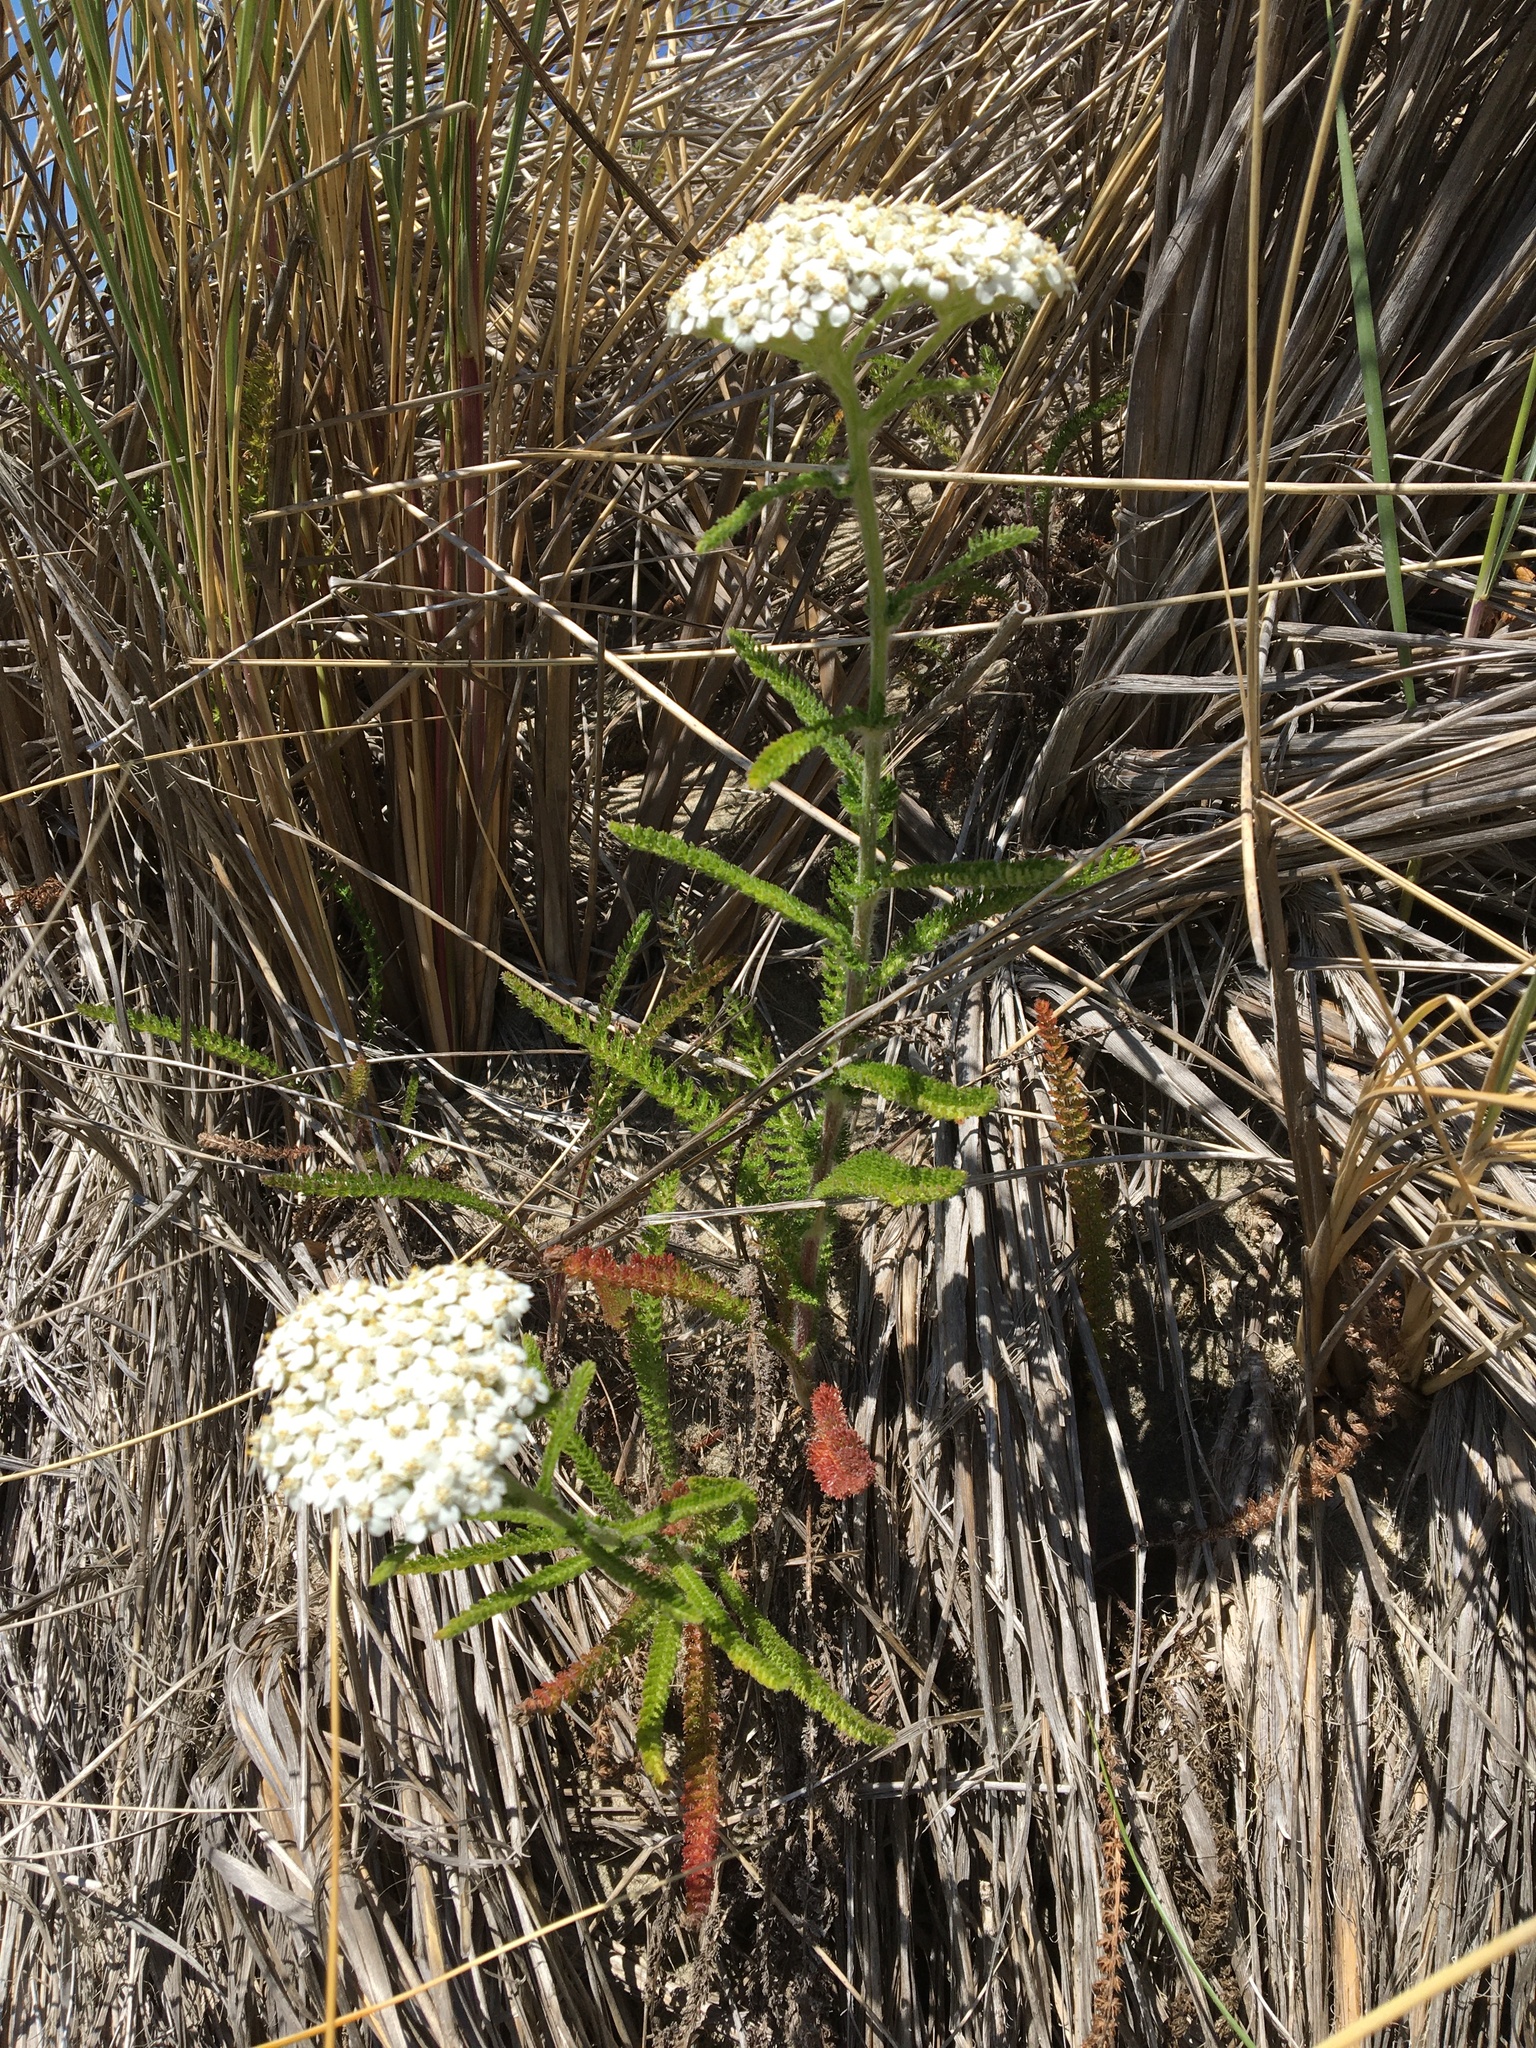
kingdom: Plantae
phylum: Tracheophyta
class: Magnoliopsida
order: Asterales
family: Asteraceae
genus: Achillea
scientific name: Achillea millefolium
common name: Yarrow
